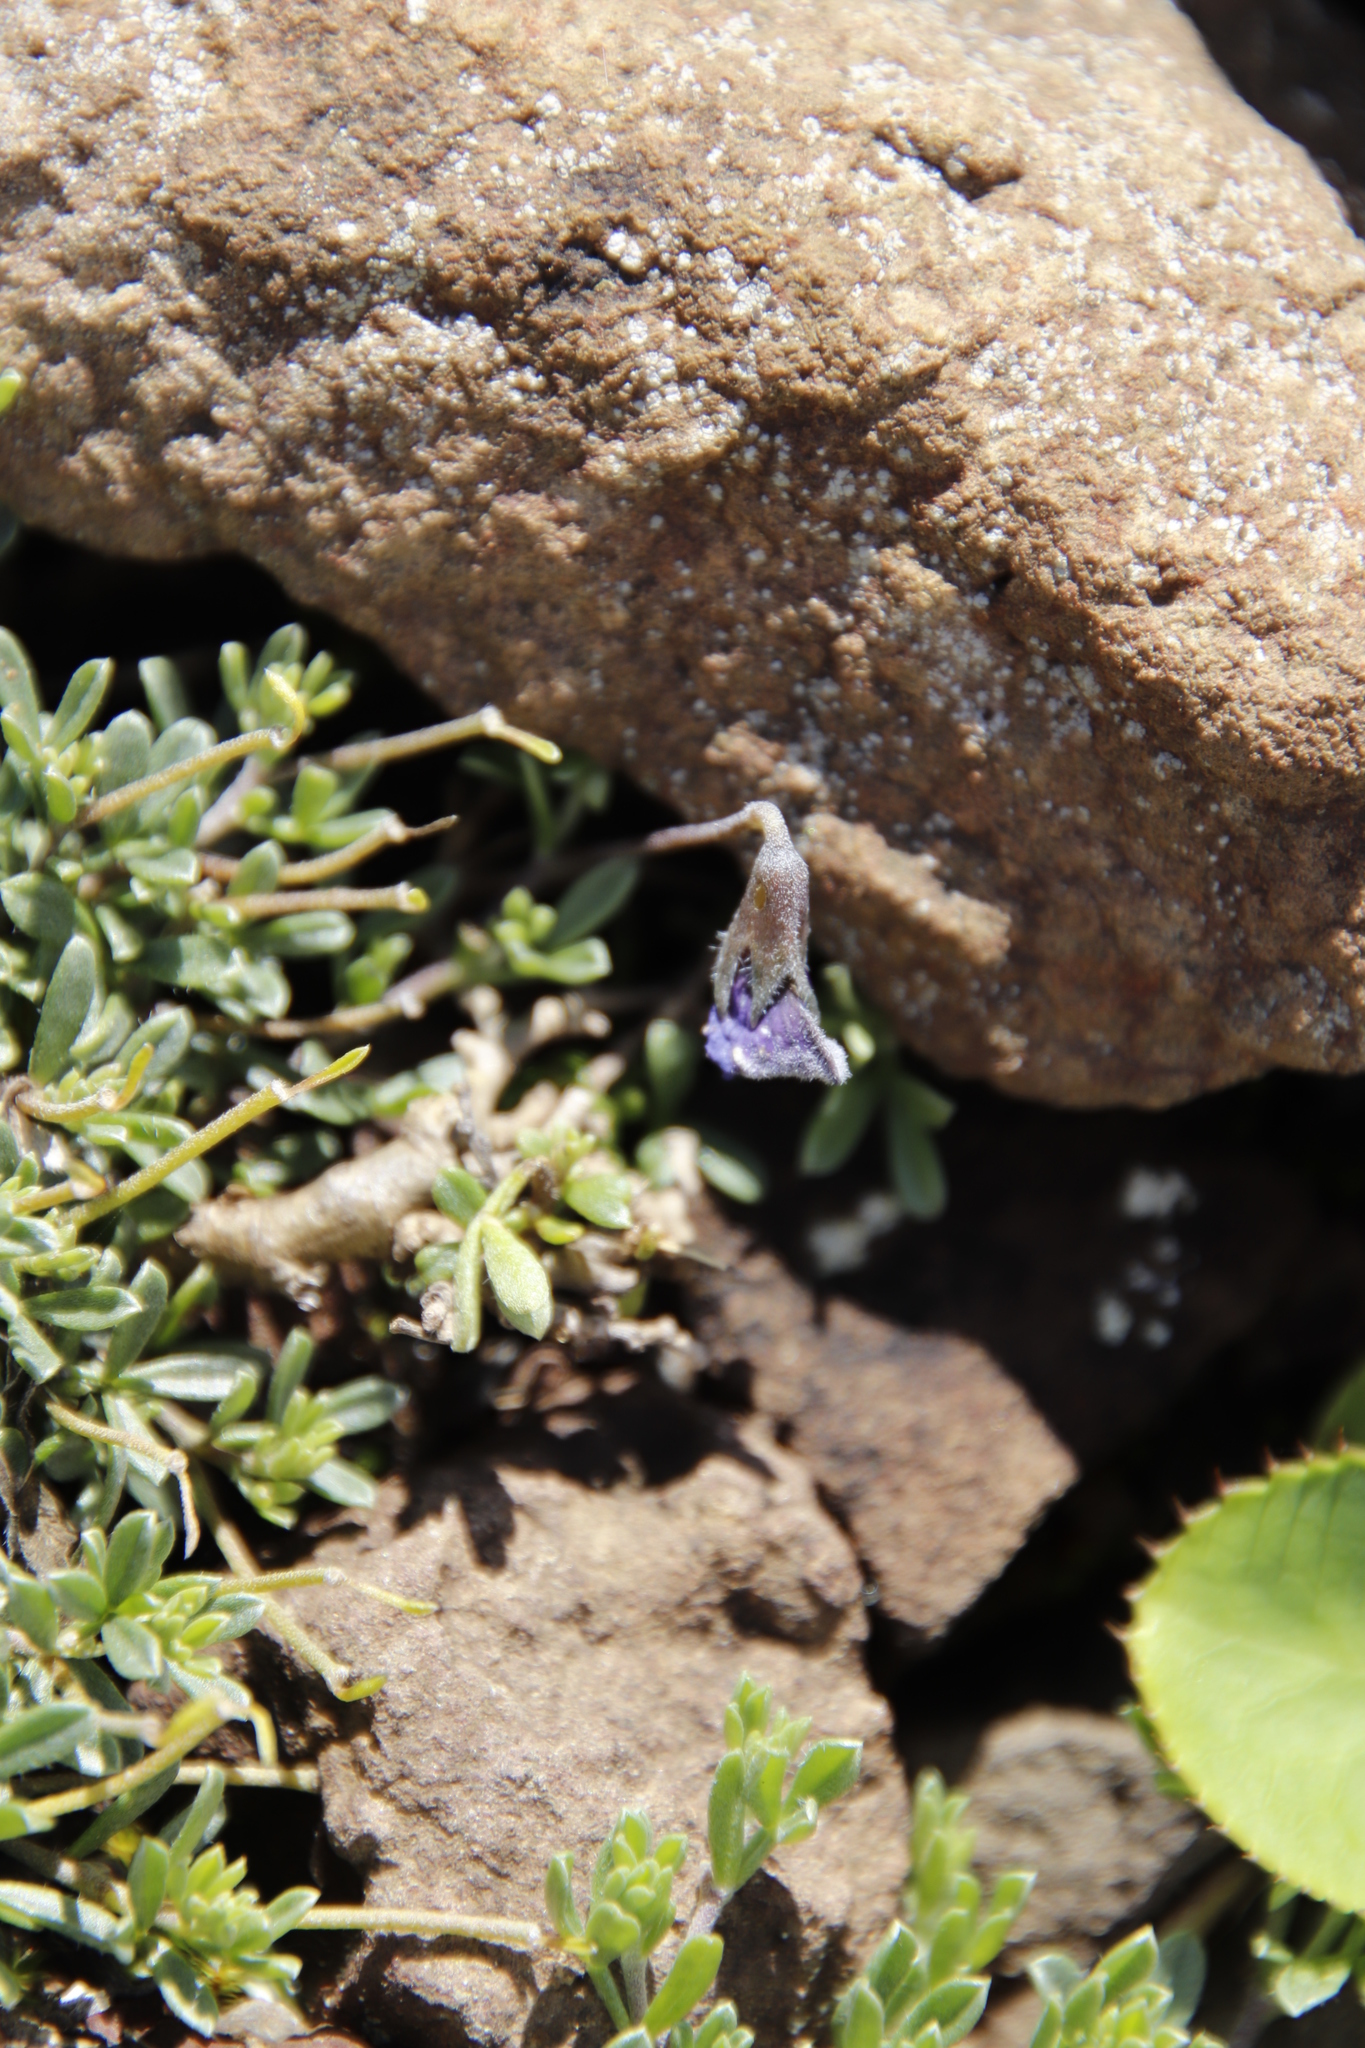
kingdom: Plantae
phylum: Tracheophyta
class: Magnoliopsida
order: Fabales
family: Fabaceae
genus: Lotononis
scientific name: Lotononis galpinii
